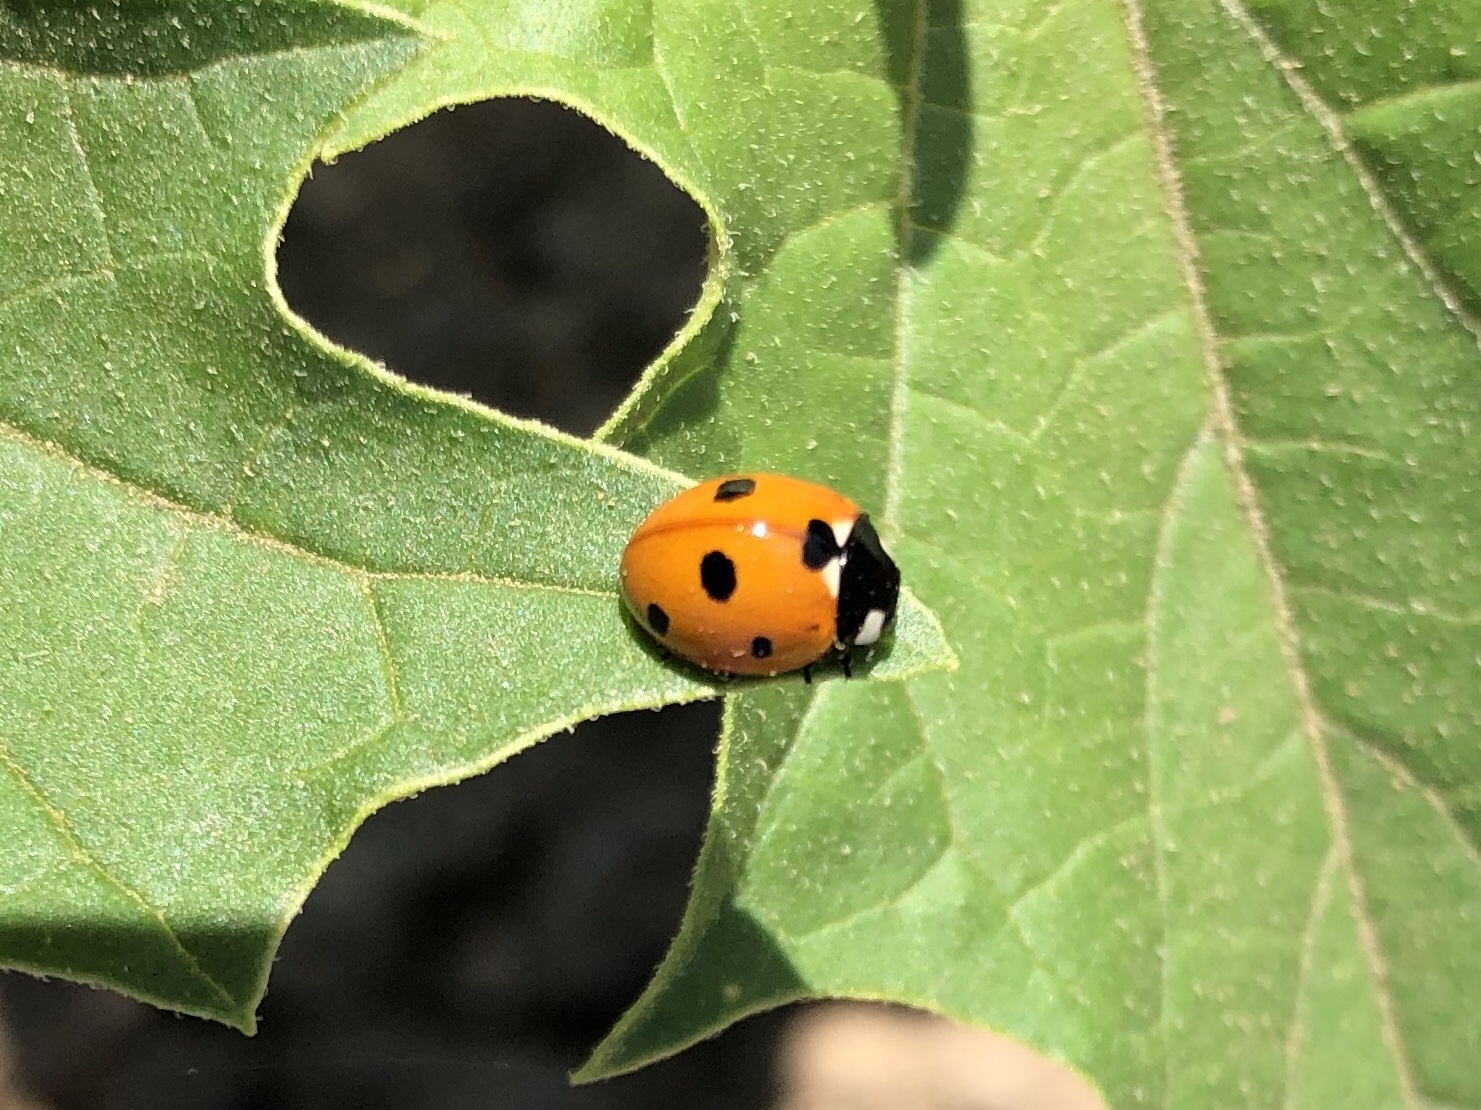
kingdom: Animalia
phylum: Arthropoda
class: Insecta
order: Coleoptera
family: Coccinellidae
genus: Coccinella
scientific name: Coccinella septempunctata
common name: Sevenspotted lady beetle
